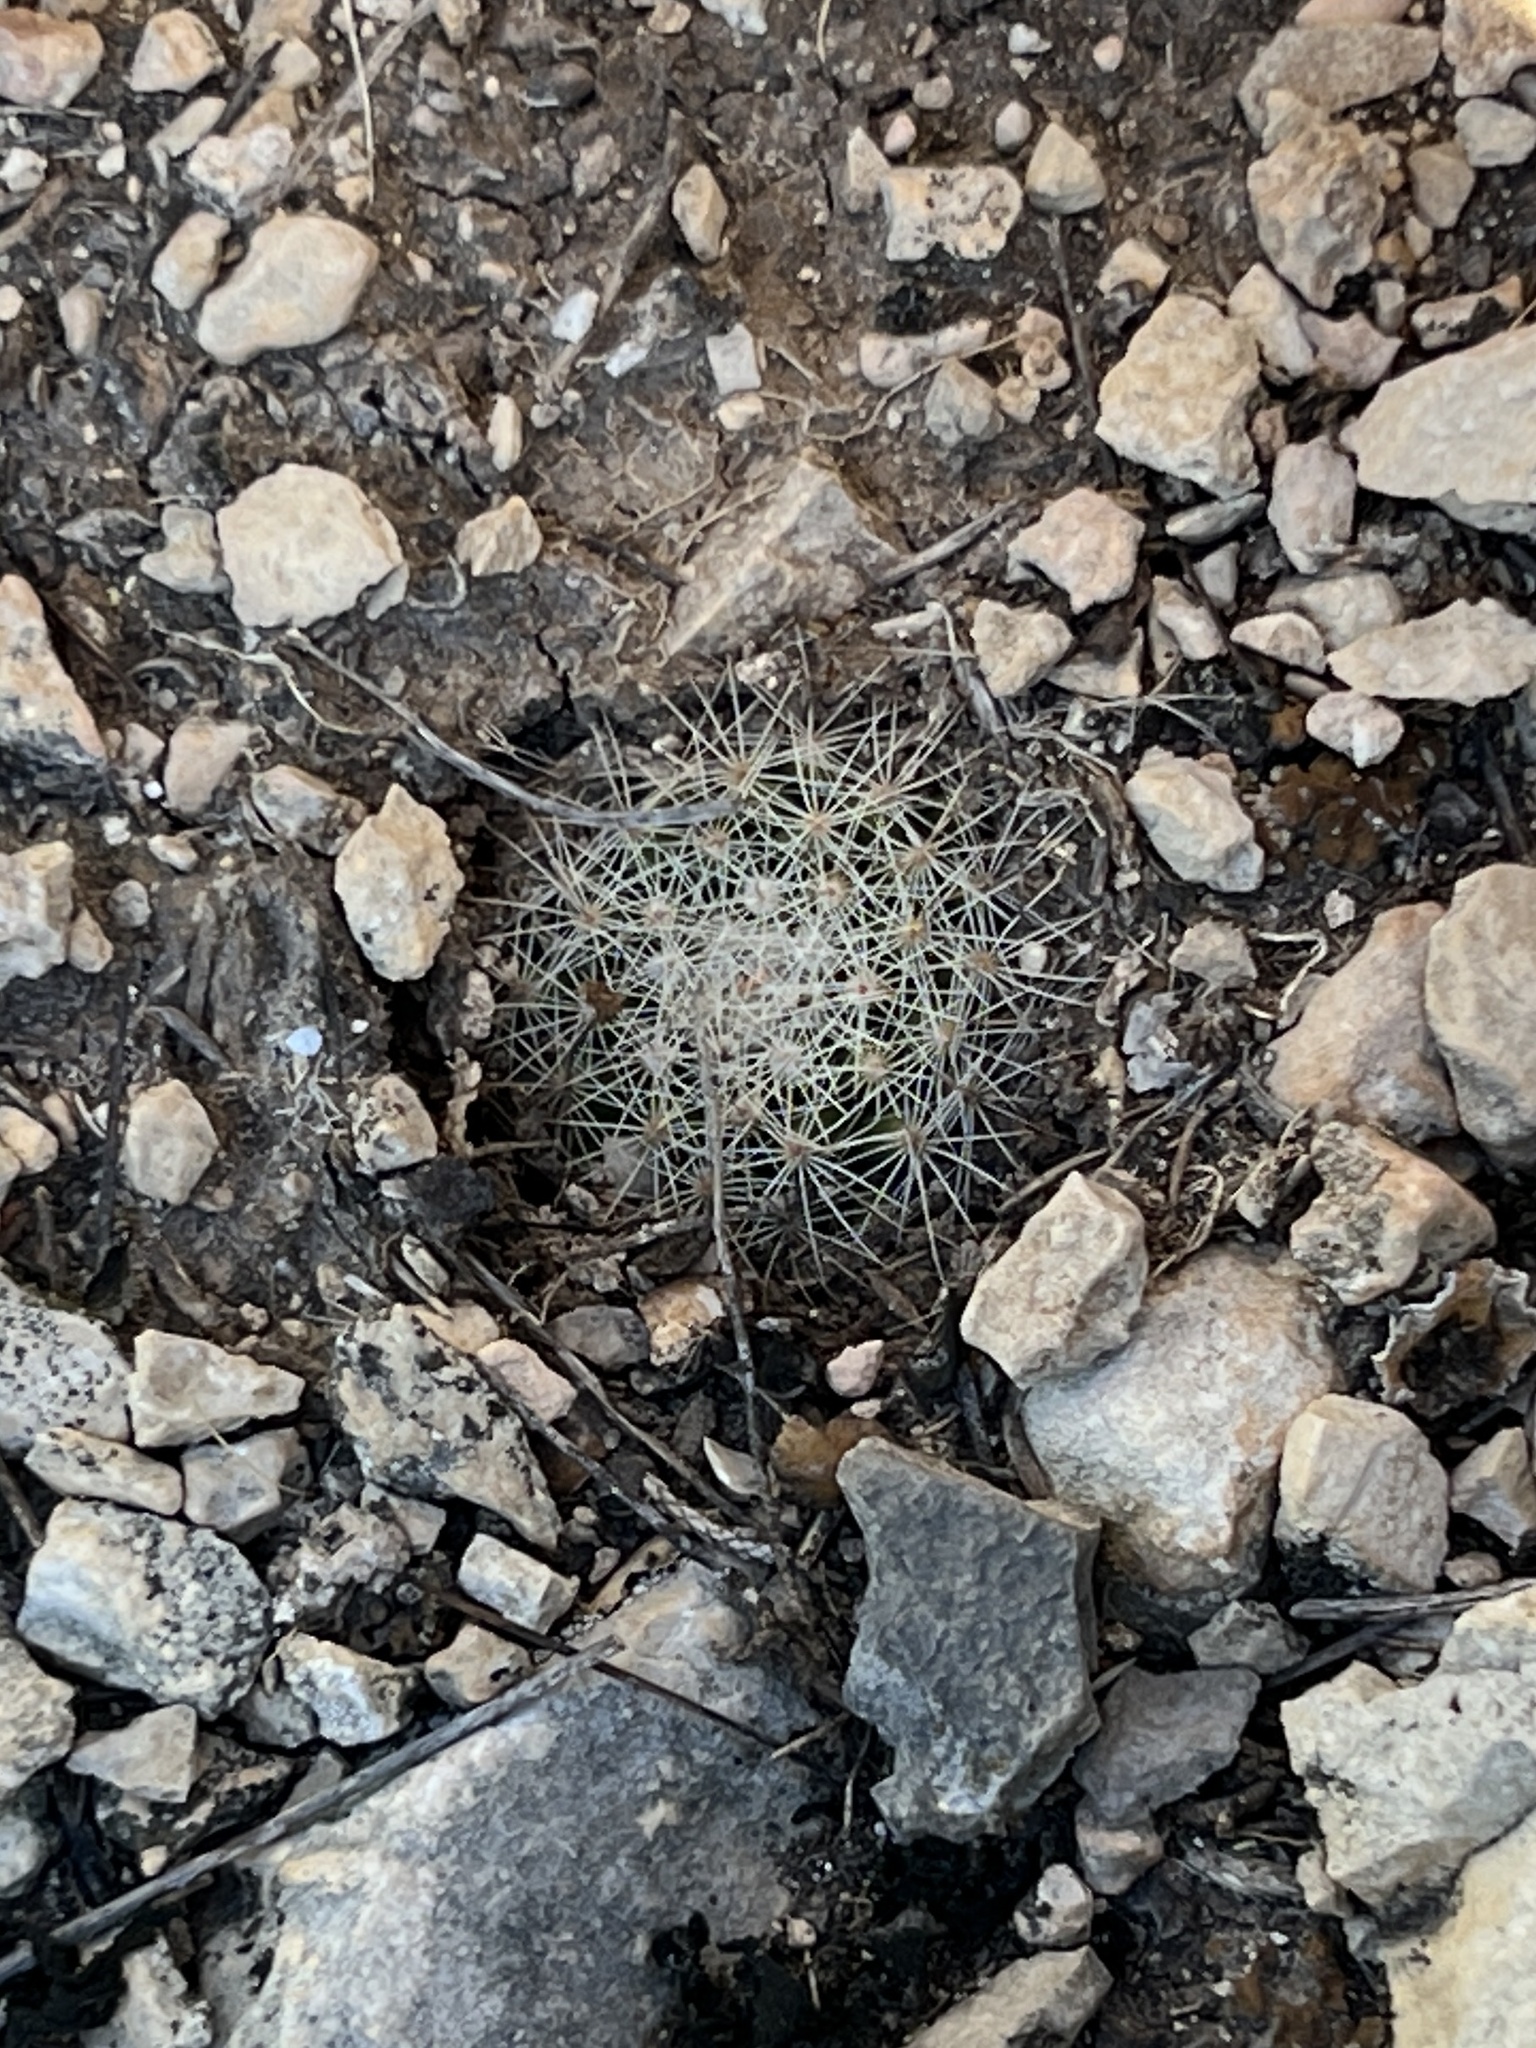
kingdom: Plantae
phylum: Tracheophyta
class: Magnoliopsida
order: Caryophyllales
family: Cactaceae
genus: Mammillaria
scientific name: Mammillaria heyderi
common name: Little nipple cactus
